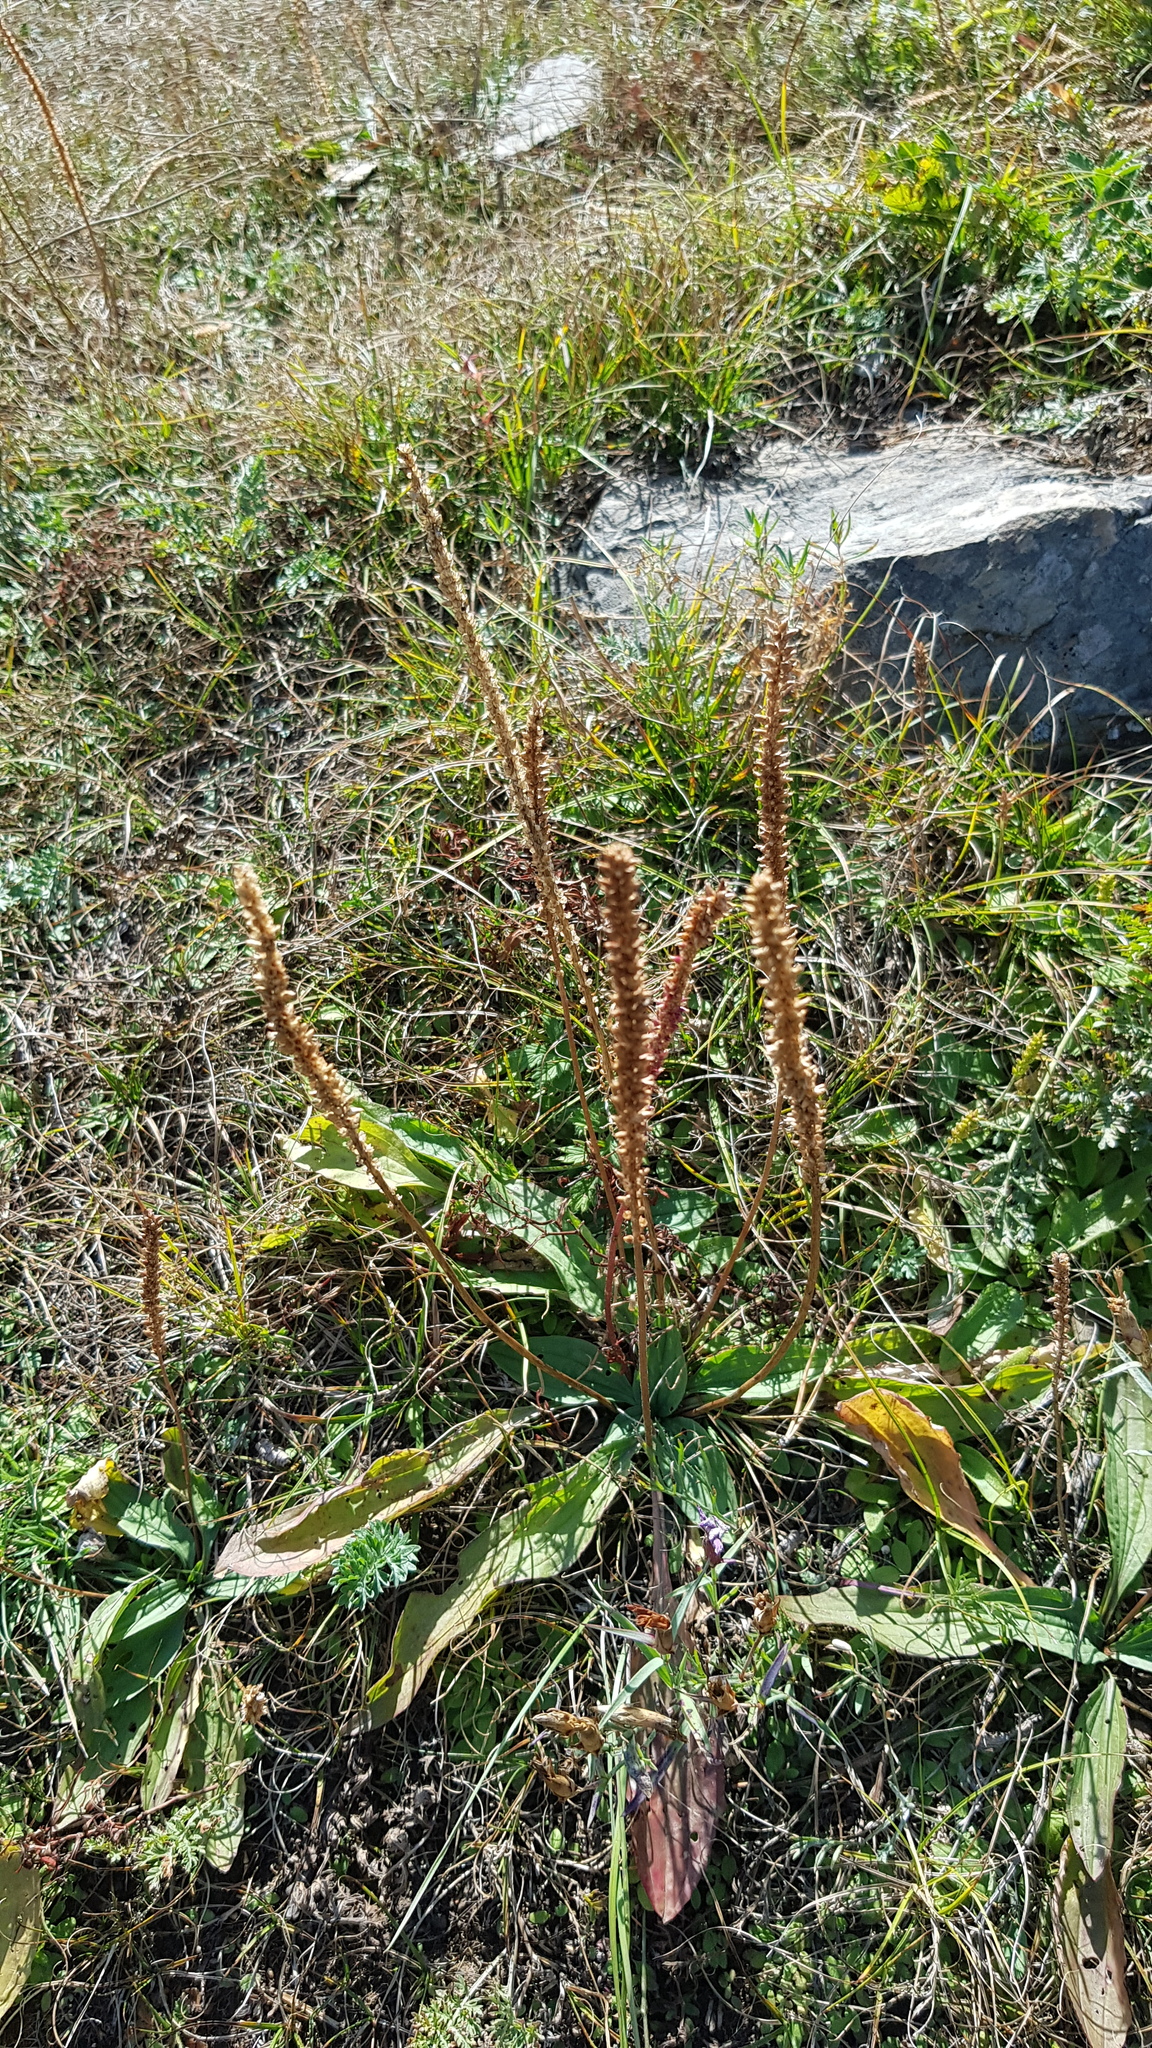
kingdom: Plantae
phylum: Tracheophyta
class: Magnoliopsida
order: Lamiales
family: Plantaginaceae
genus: Plantago
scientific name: Plantago depressa
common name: Depressed plantain
